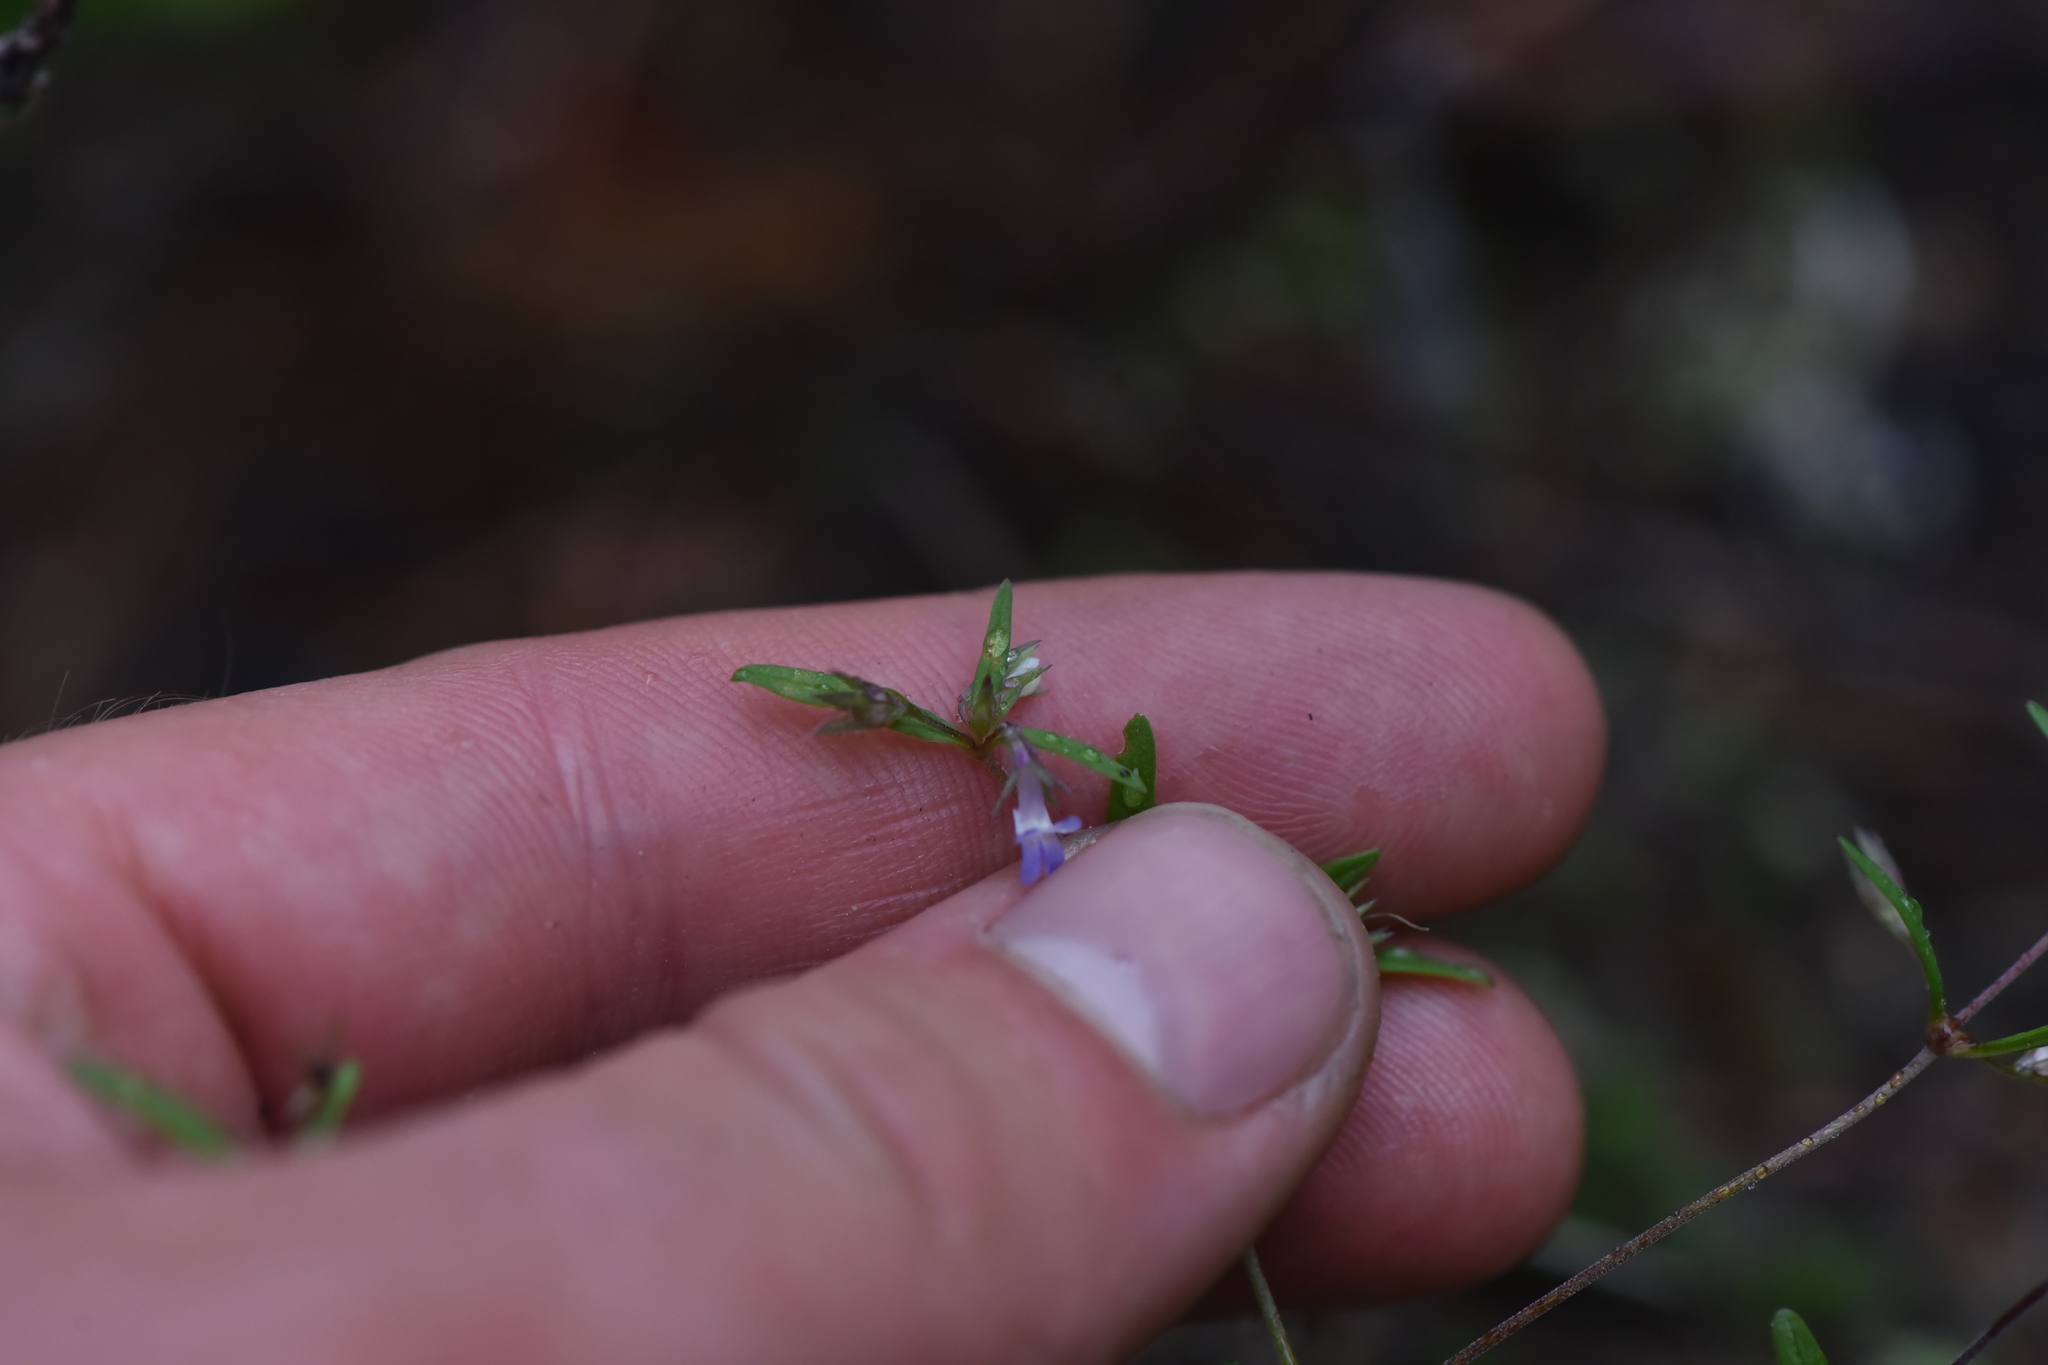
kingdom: Plantae
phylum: Tracheophyta
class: Magnoliopsida
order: Lamiales
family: Plantaginaceae
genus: Collinsia
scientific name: Collinsia parviflora
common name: Blue-lips
